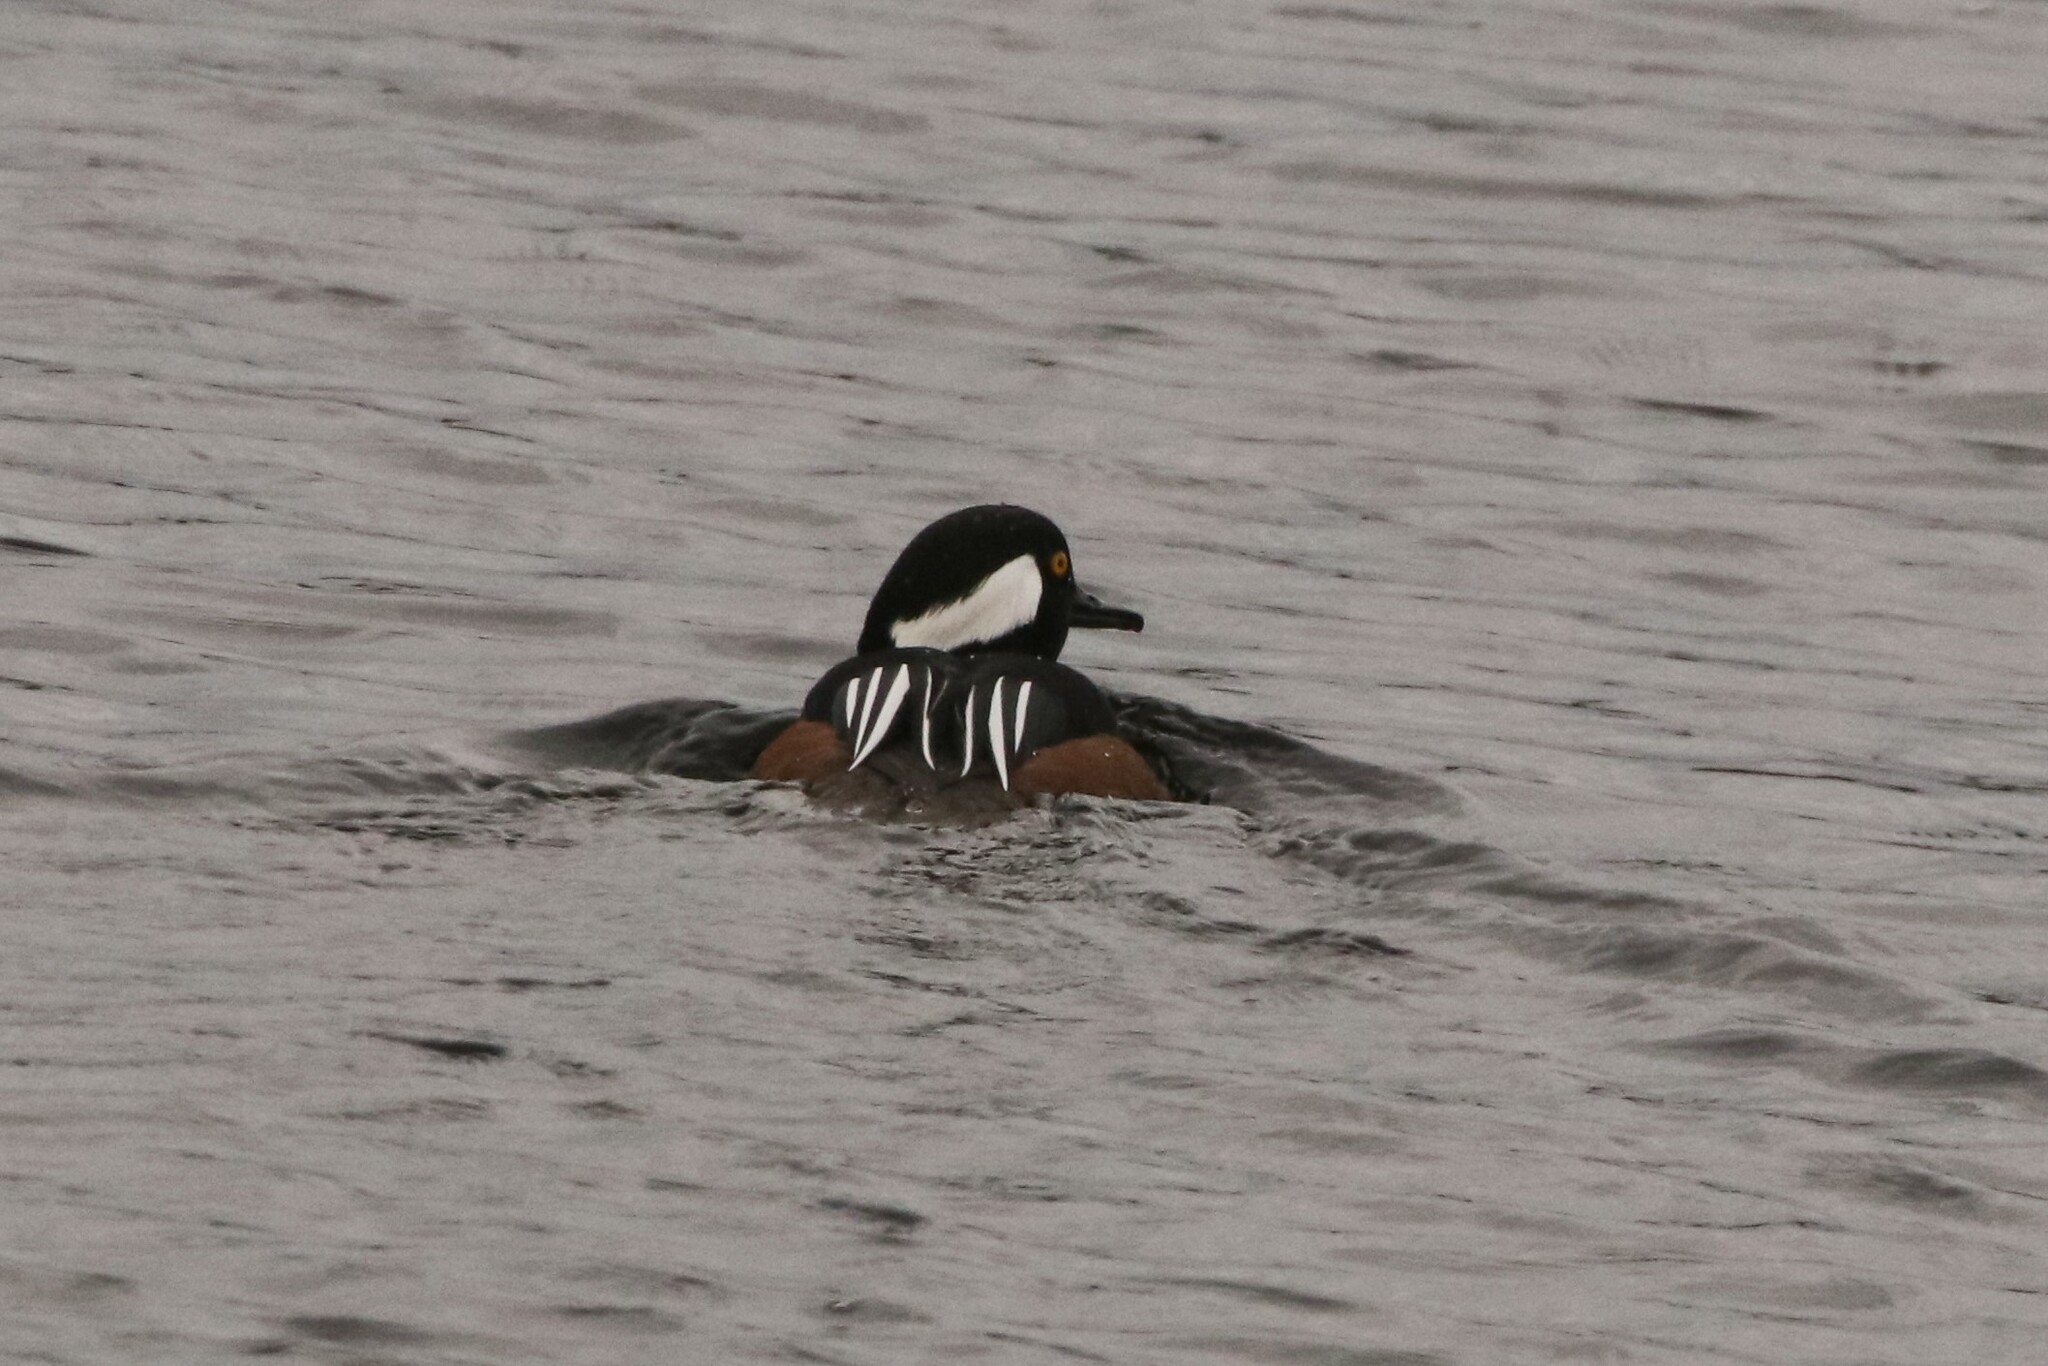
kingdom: Animalia
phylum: Chordata
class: Aves
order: Anseriformes
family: Anatidae
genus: Lophodytes
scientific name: Lophodytes cucullatus
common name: Hooded merganser
